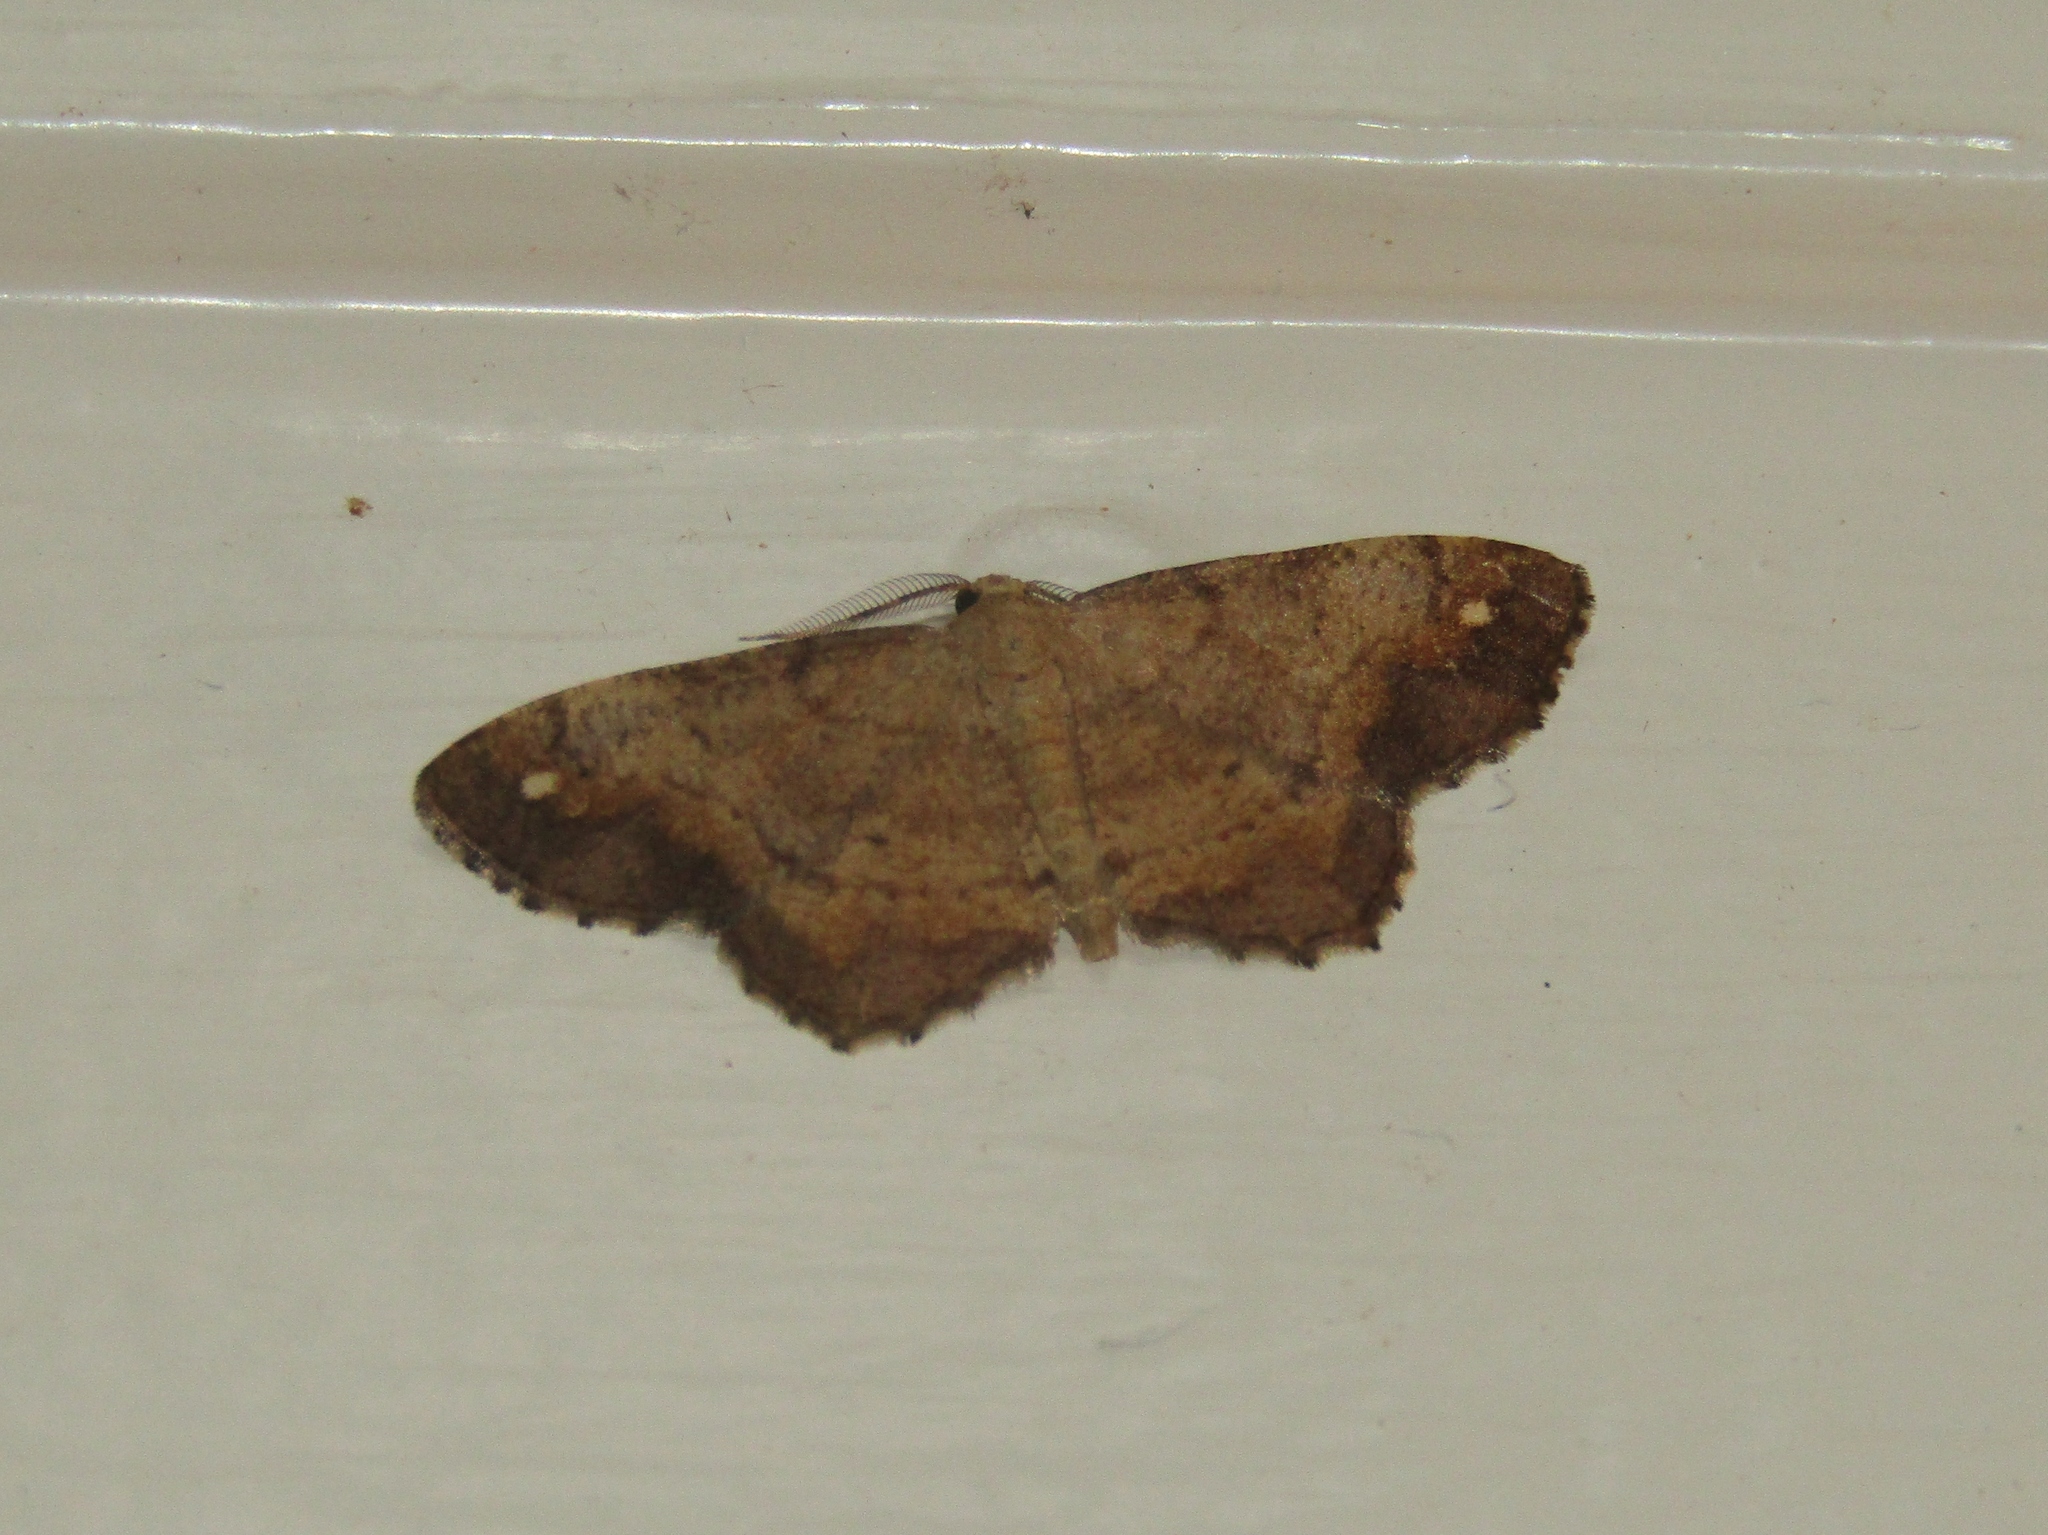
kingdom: Animalia
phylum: Arthropoda
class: Insecta
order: Lepidoptera
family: Geometridae
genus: Hypagyrtis
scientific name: Hypagyrtis unipunctata
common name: One-spotted variant
